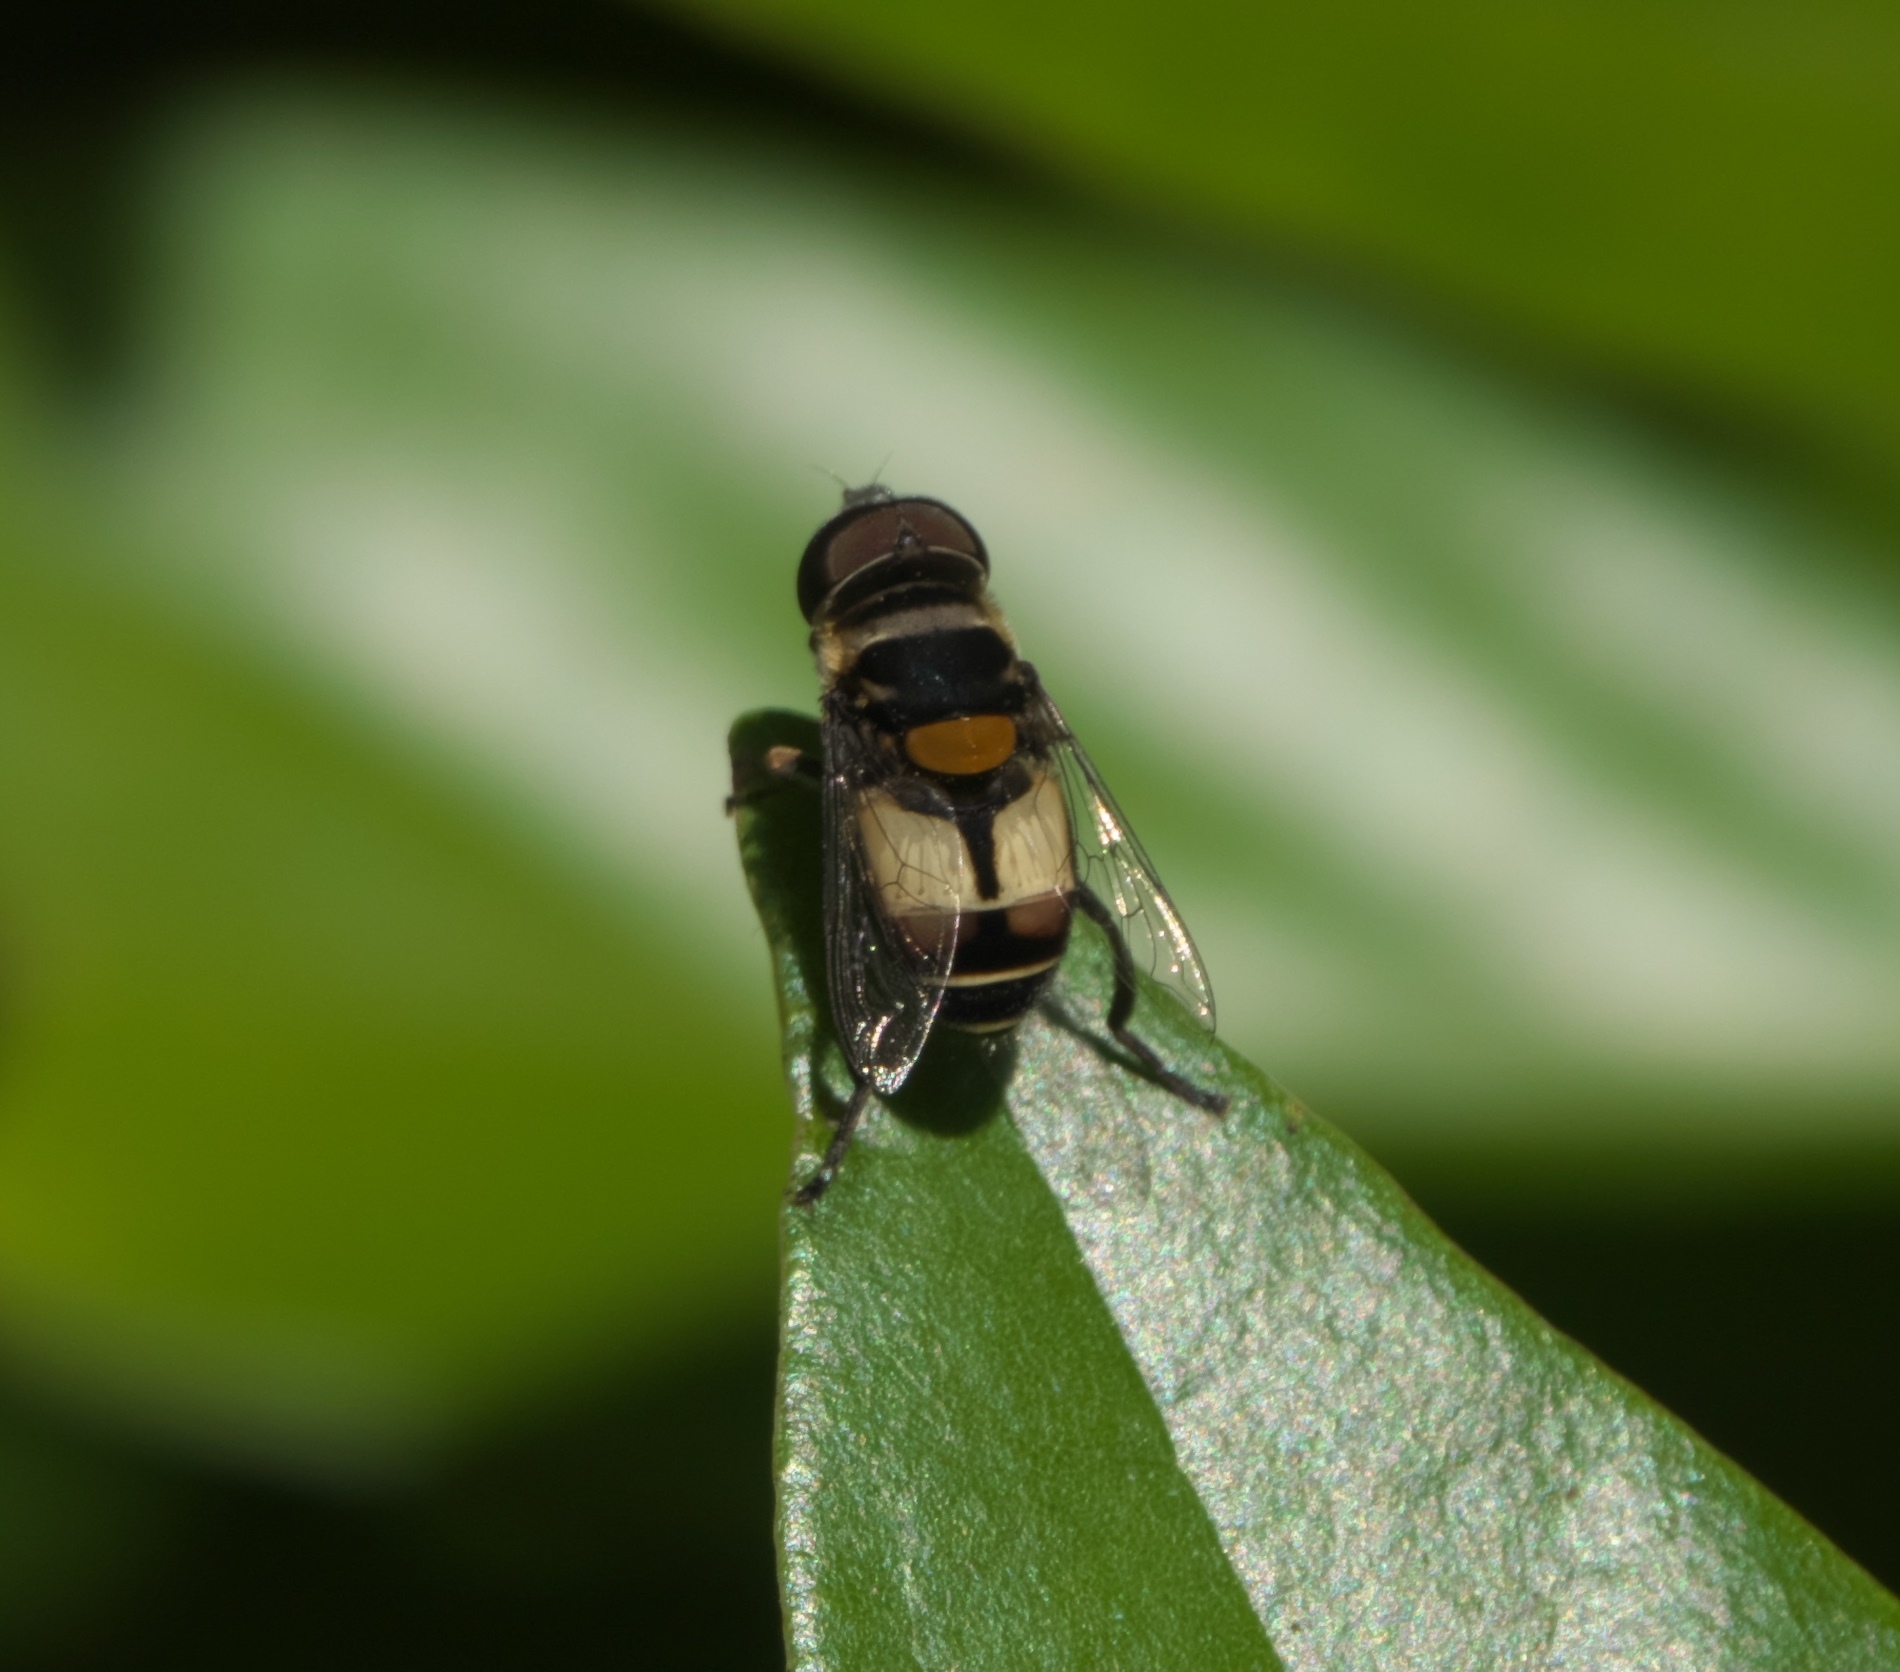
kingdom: Animalia
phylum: Arthropoda
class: Insecta
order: Diptera
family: Syrphidae
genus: Palpada
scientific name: Palpada albifrons
